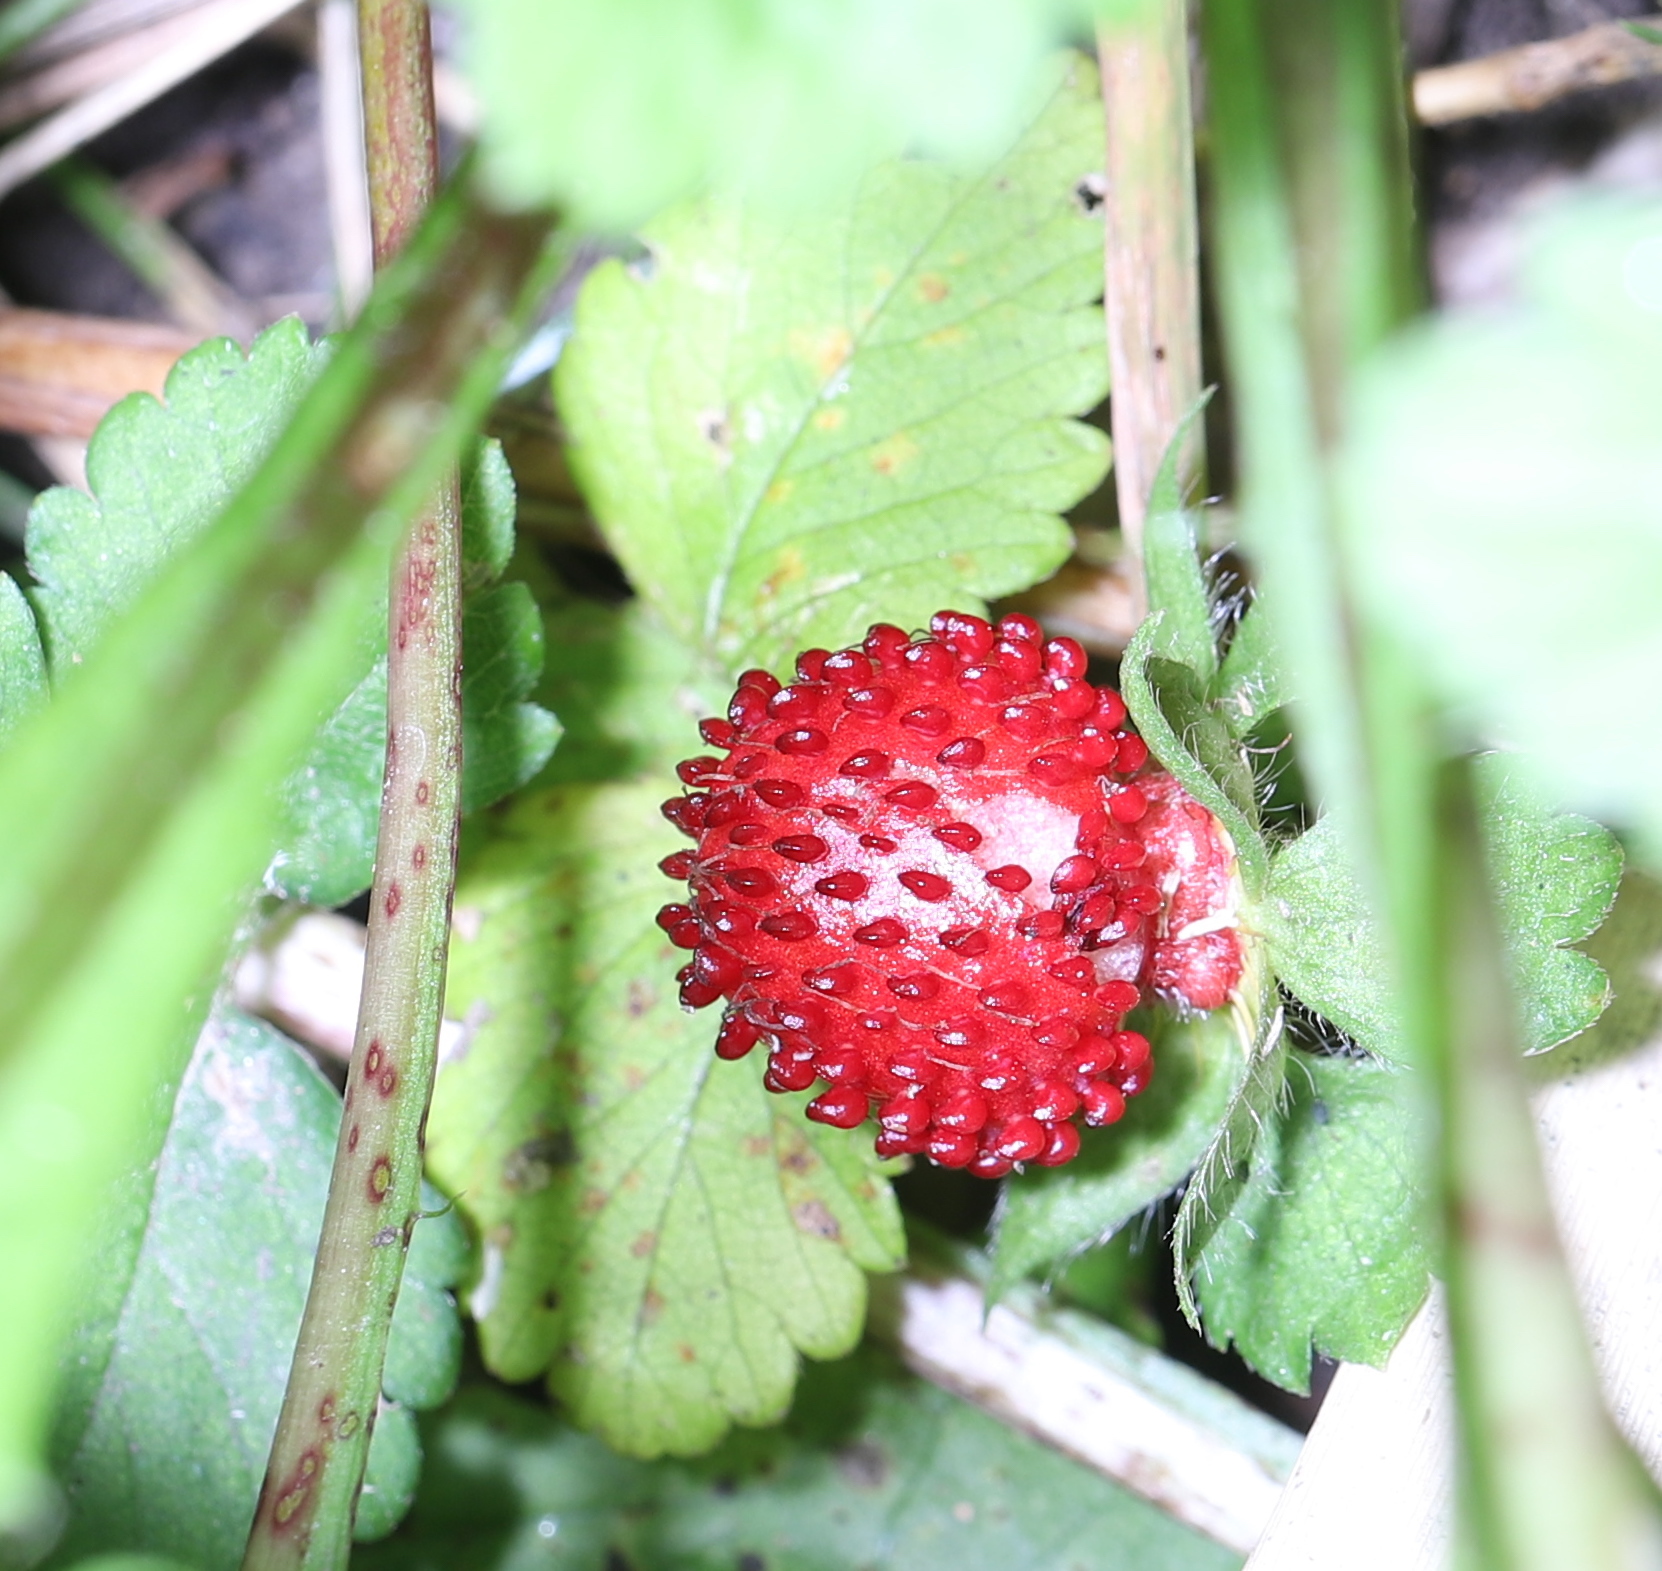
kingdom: Plantae
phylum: Tracheophyta
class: Magnoliopsida
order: Rosales
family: Rosaceae
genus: Potentilla
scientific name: Potentilla indica
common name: Yellow-flowered strawberry
